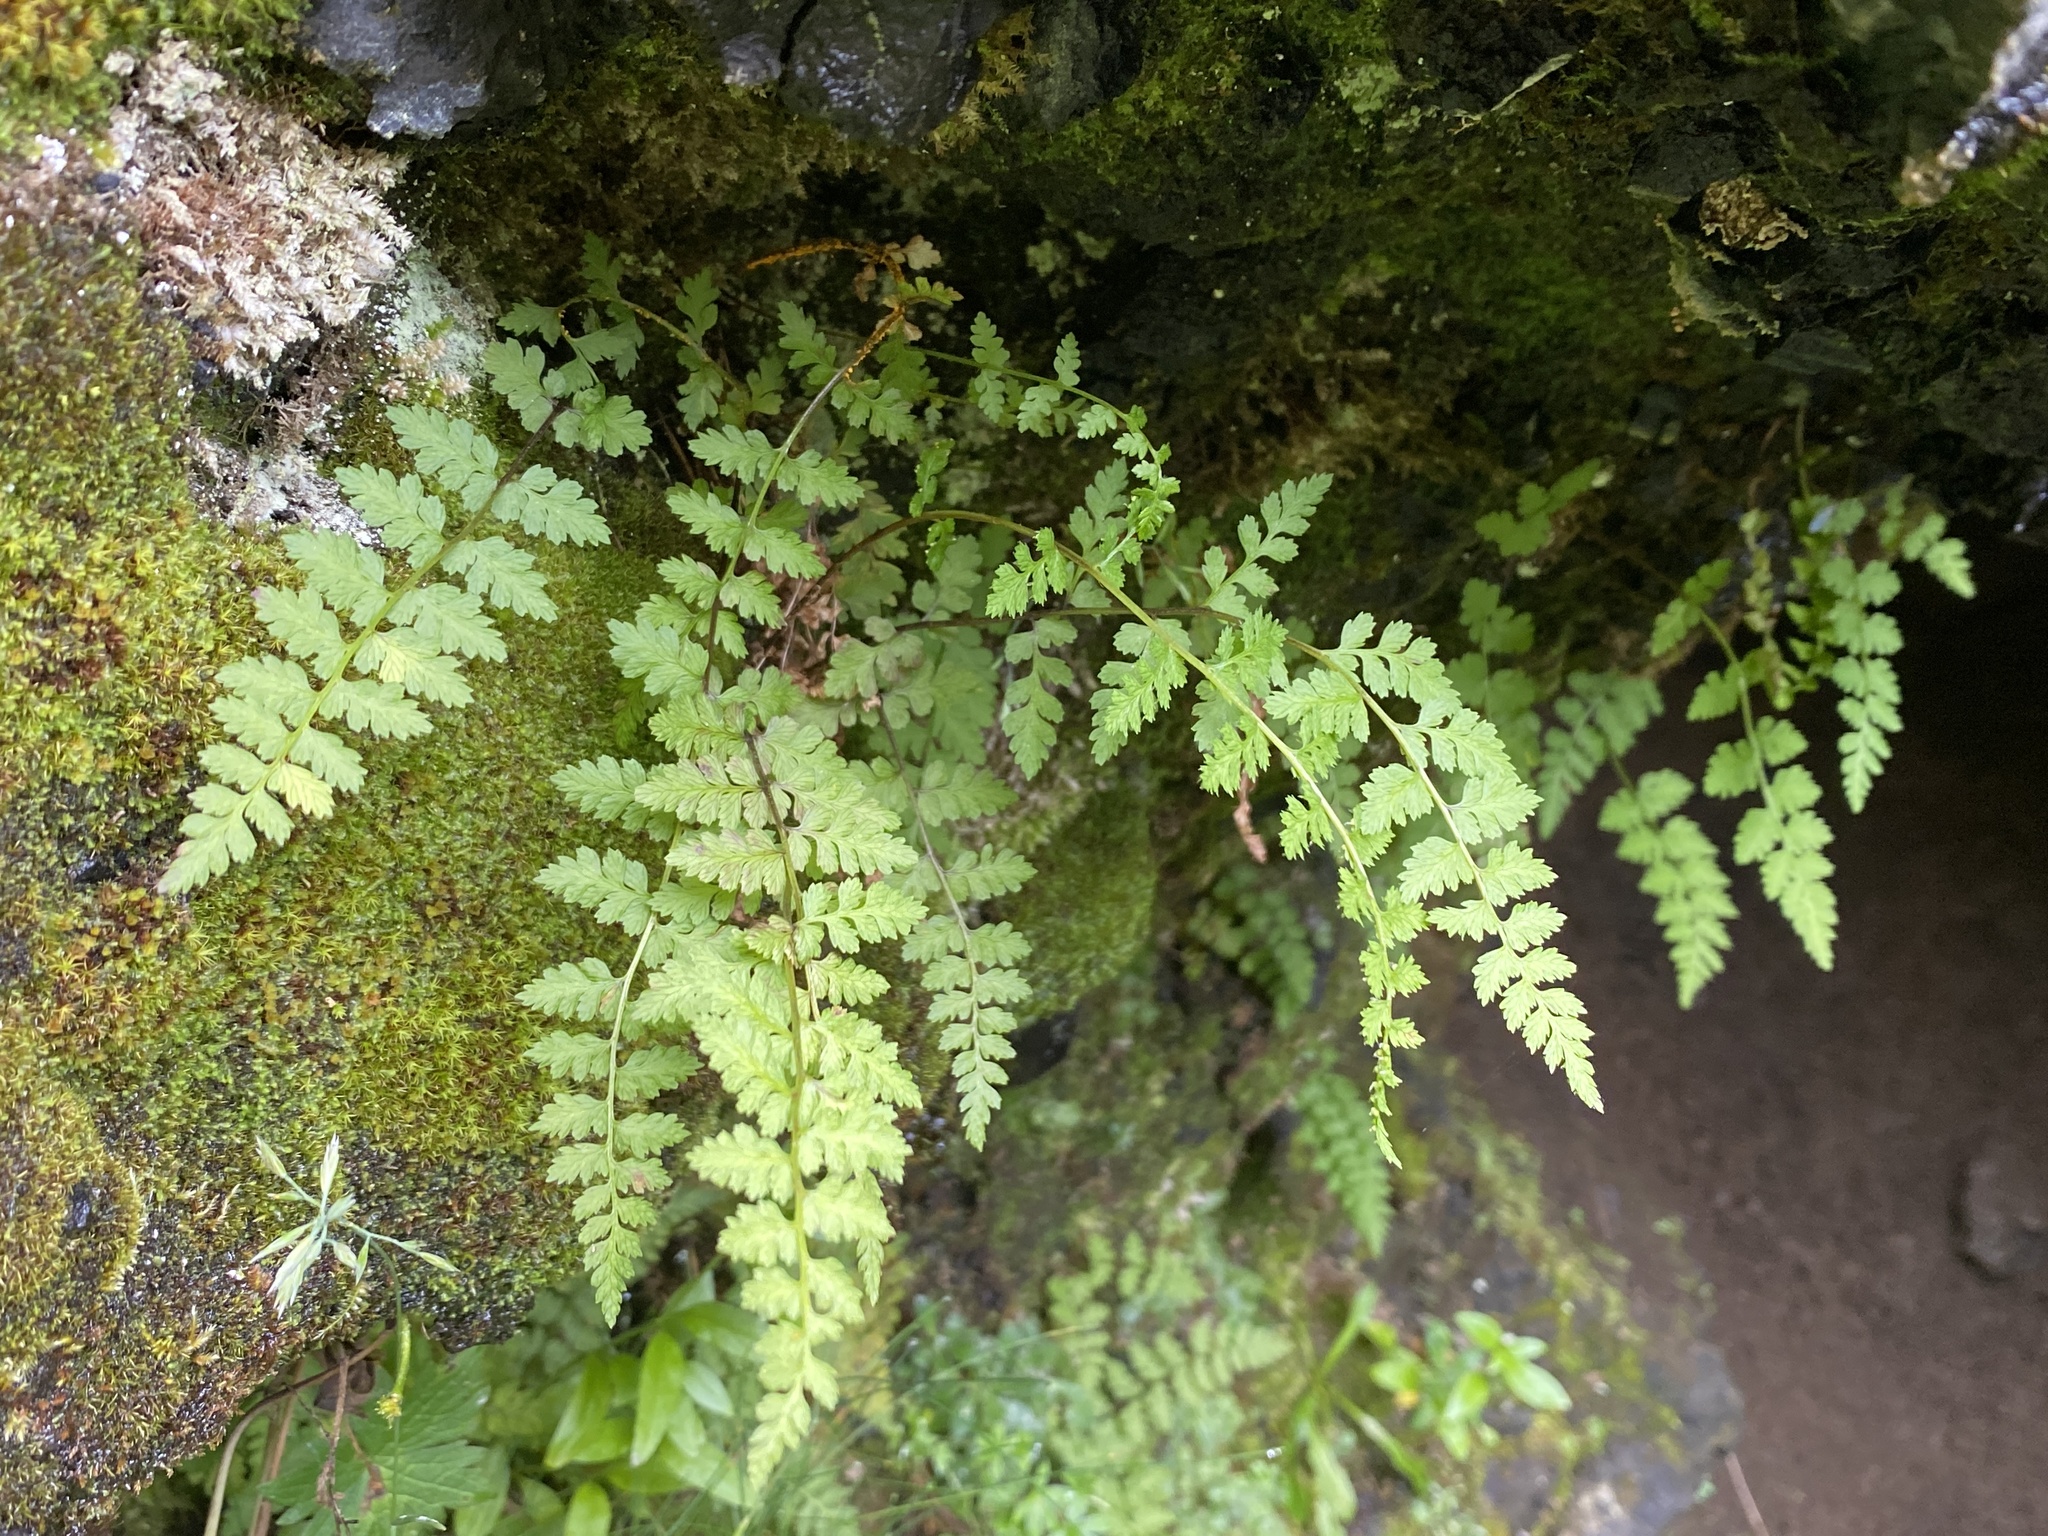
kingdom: Plantae
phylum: Tracheophyta
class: Polypodiopsida
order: Polypodiales
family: Cystopteridaceae
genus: Cystopteris
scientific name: Cystopteris fragilis
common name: Brittle bladder fern
